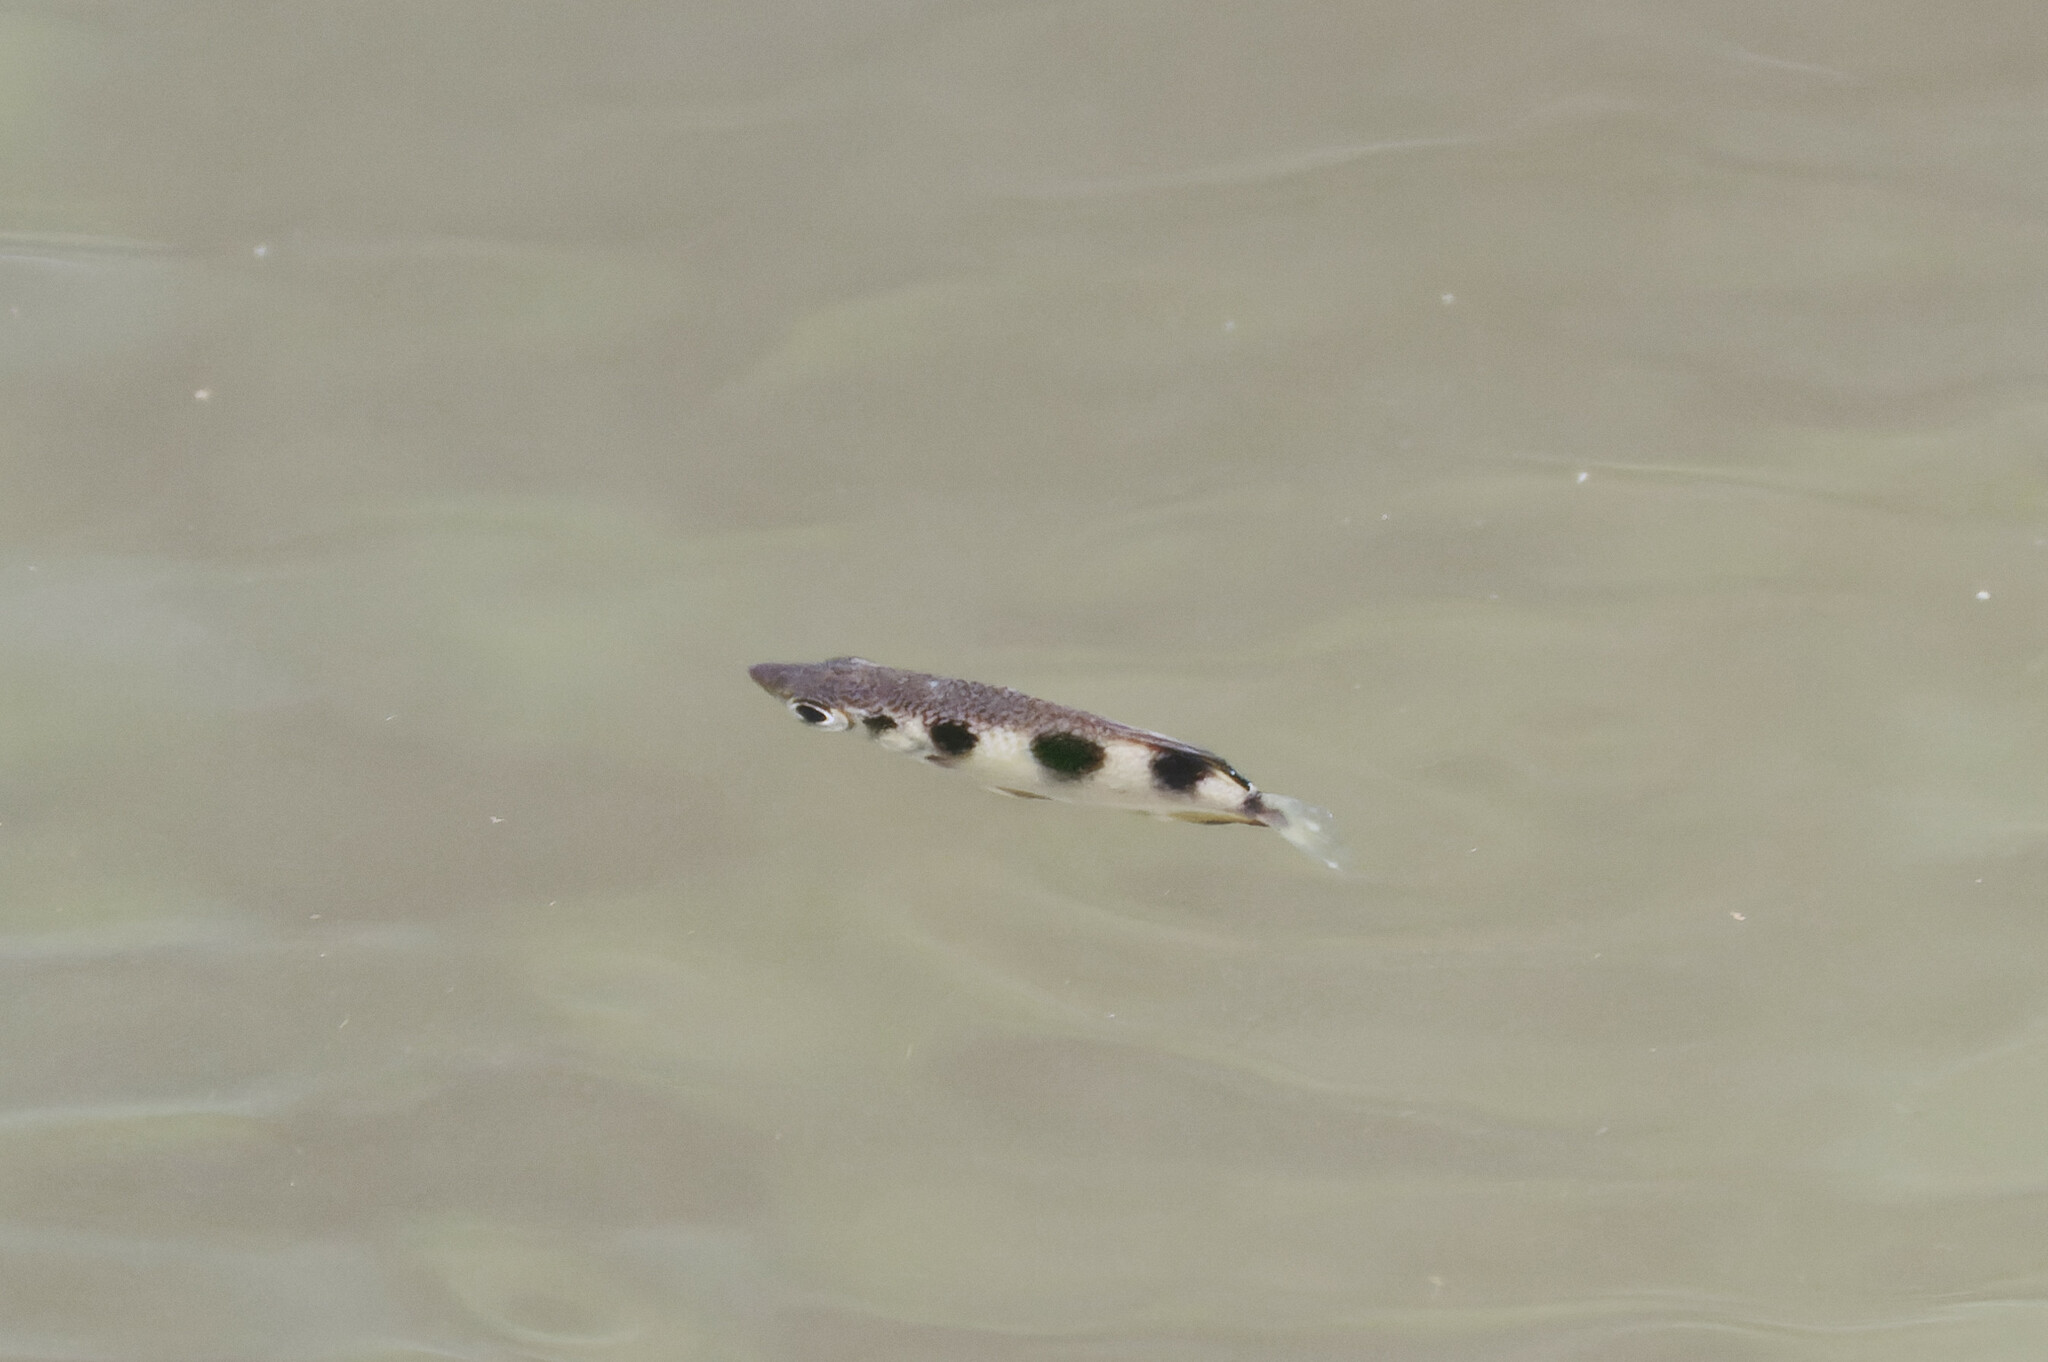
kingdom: Animalia
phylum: Chordata
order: Perciformes
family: Toxotidae
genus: Toxotes
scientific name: Toxotes jaculatrix
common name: Banded archerfish
